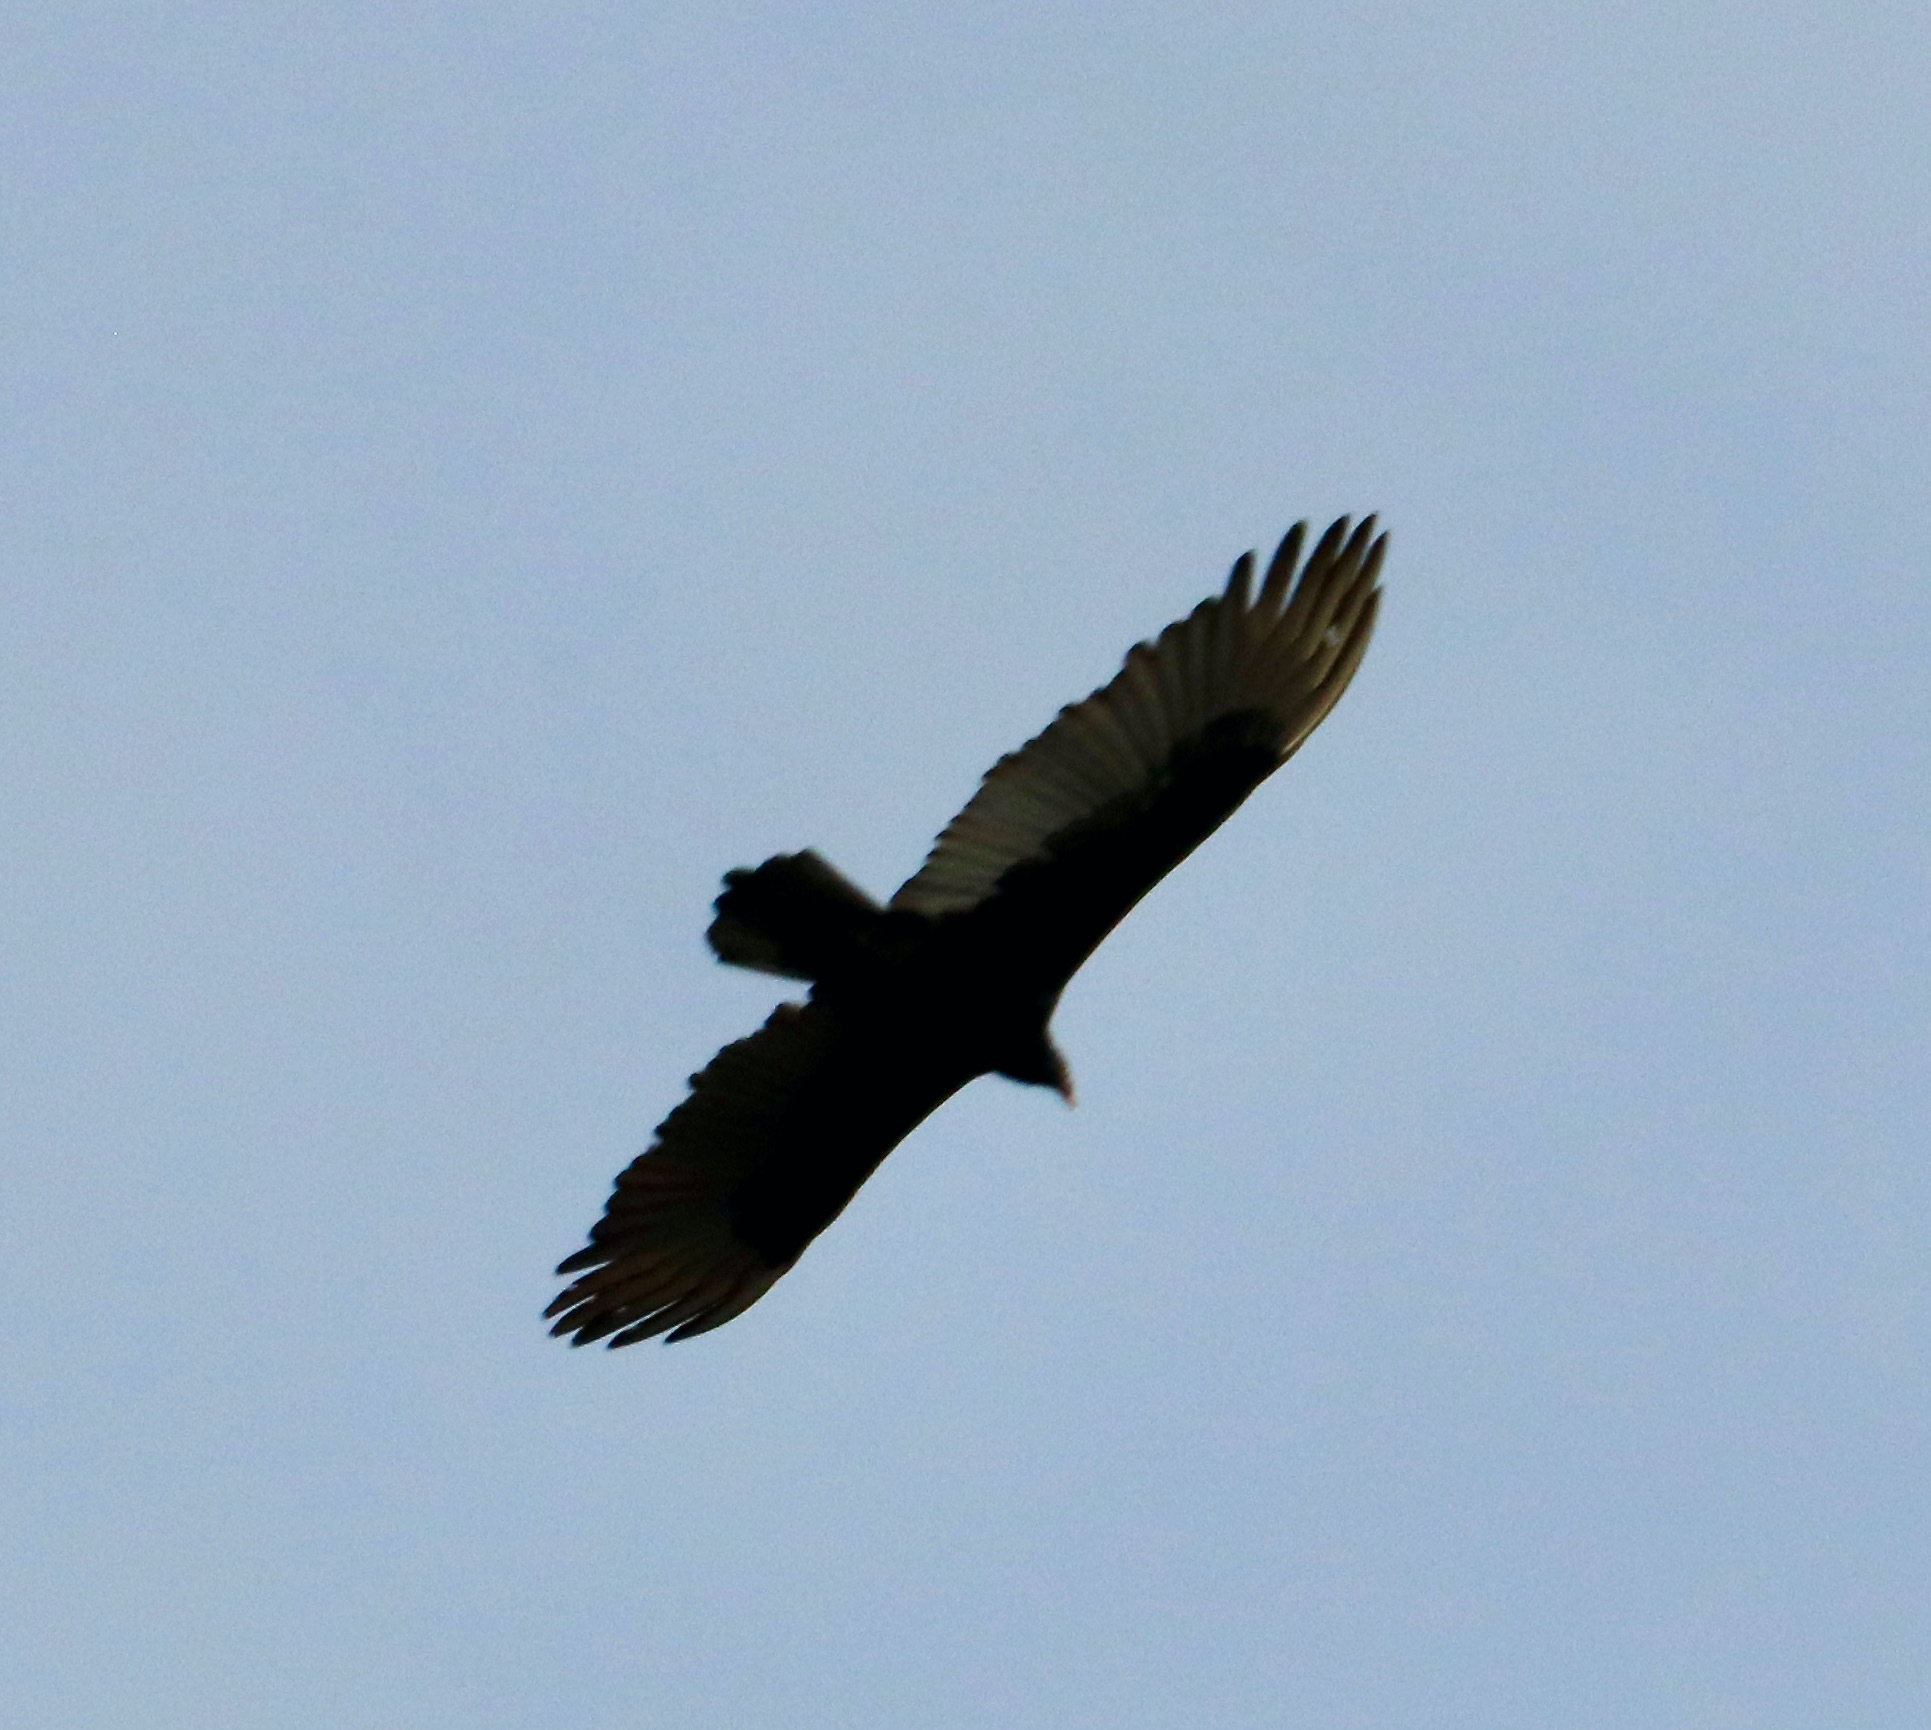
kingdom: Animalia
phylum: Chordata
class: Aves
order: Accipitriformes
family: Cathartidae
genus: Cathartes
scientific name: Cathartes aura
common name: Turkey vulture
